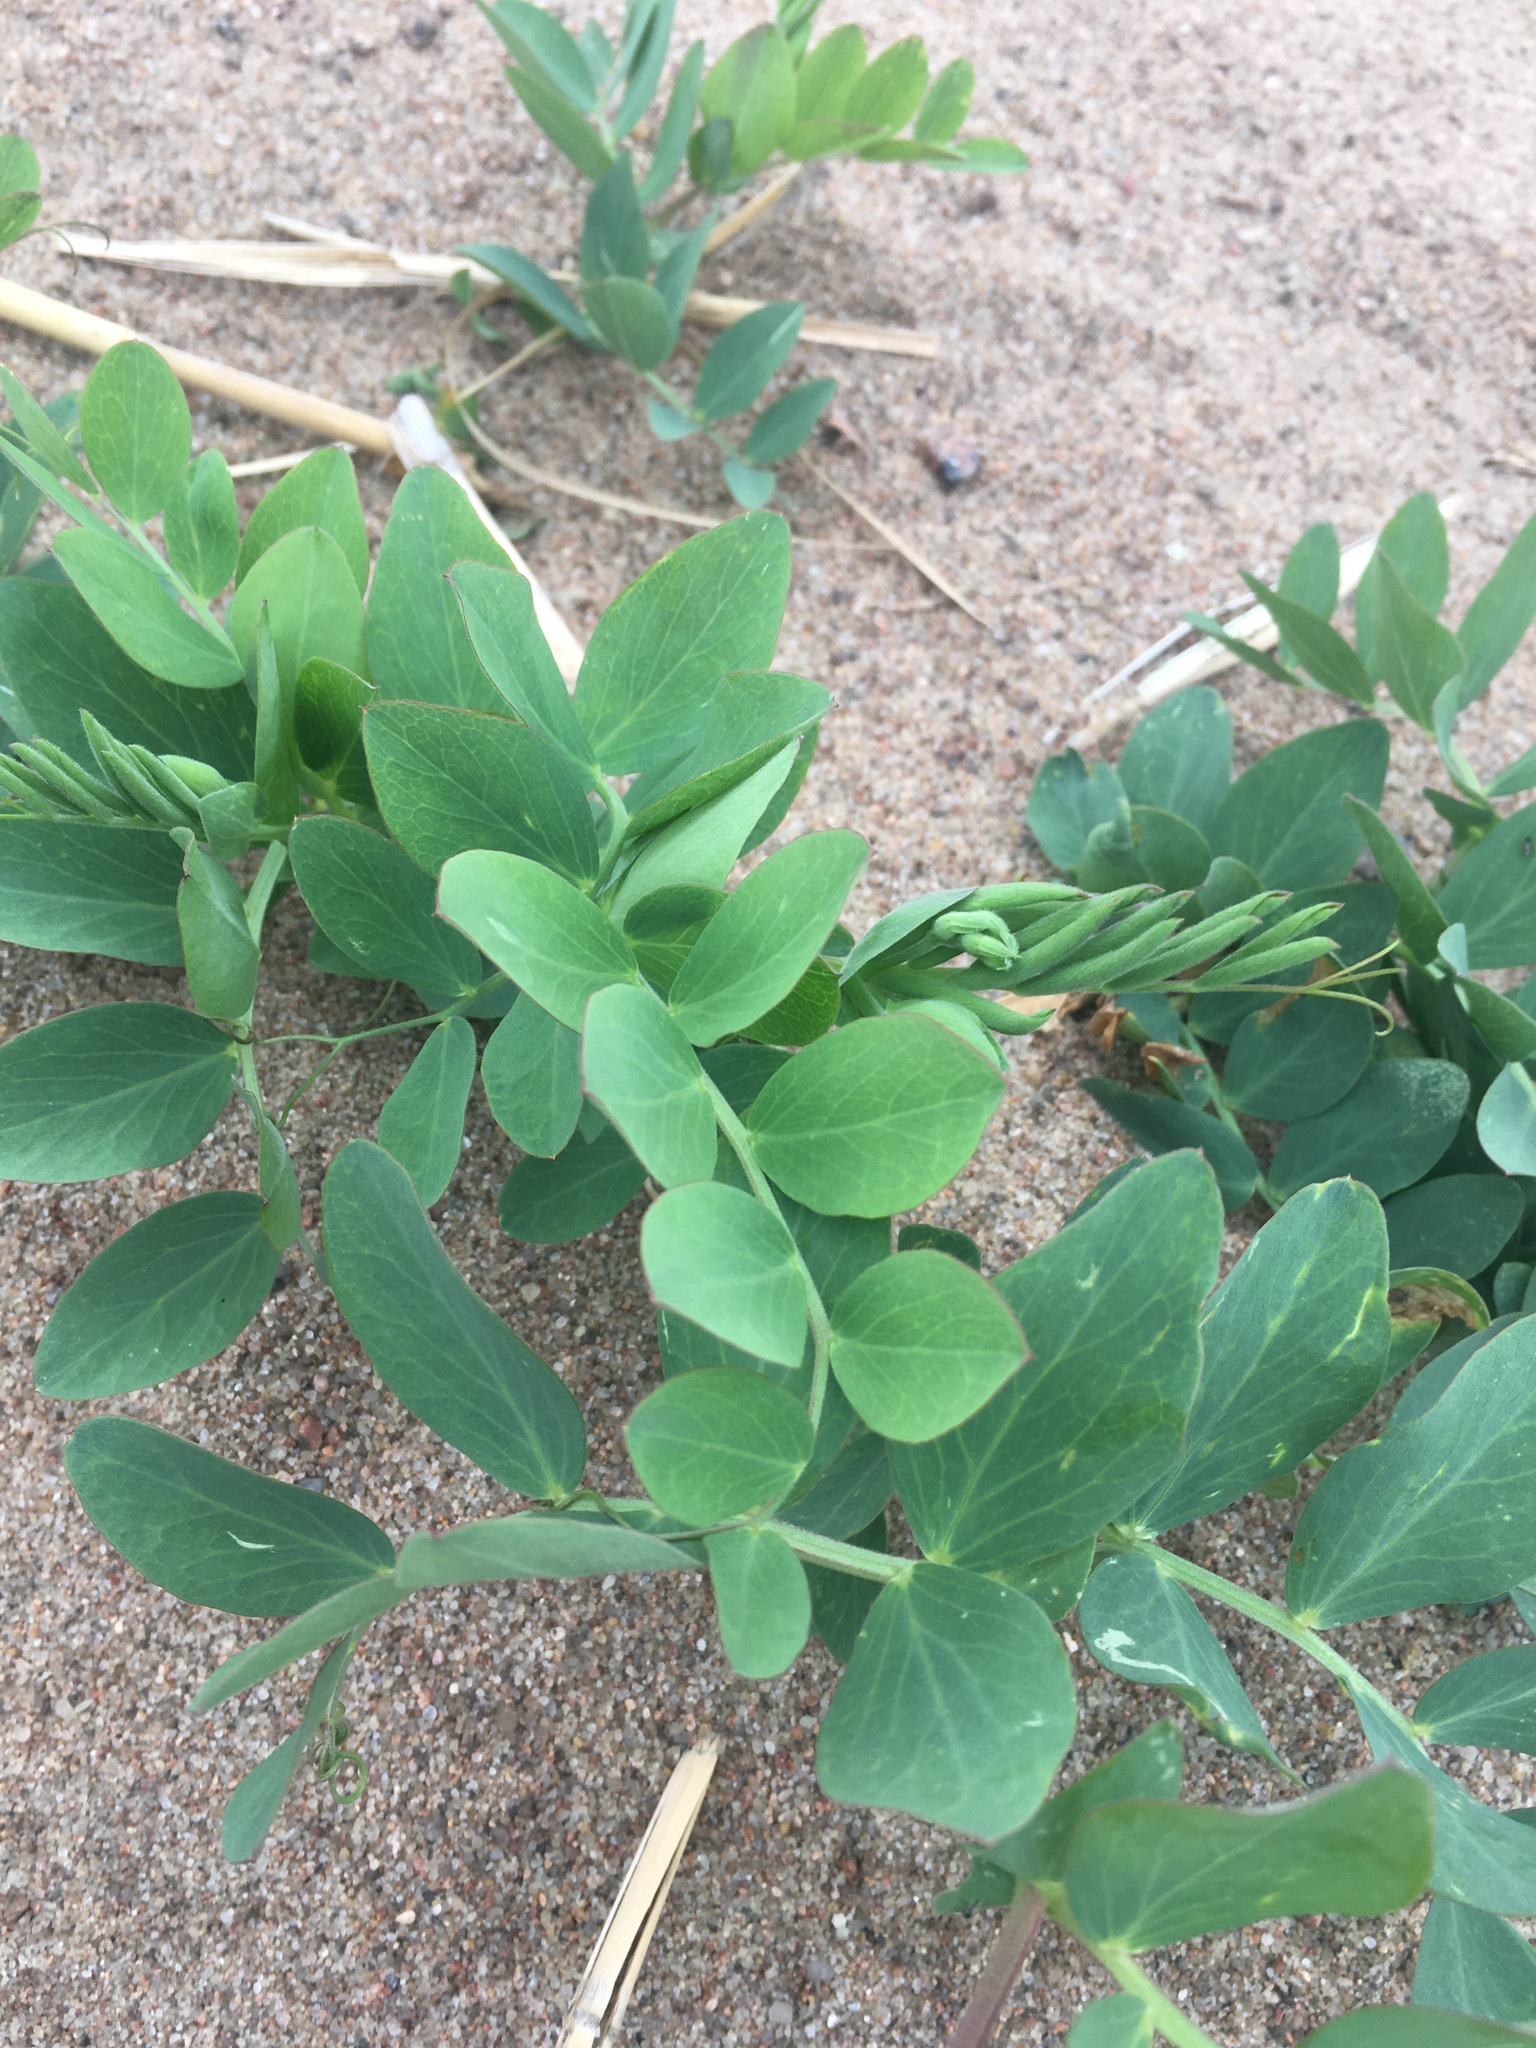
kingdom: Plantae
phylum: Tracheophyta
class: Magnoliopsida
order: Fabales
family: Fabaceae
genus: Lathyrus
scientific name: Lathyrus japonicus
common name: Sea pea
